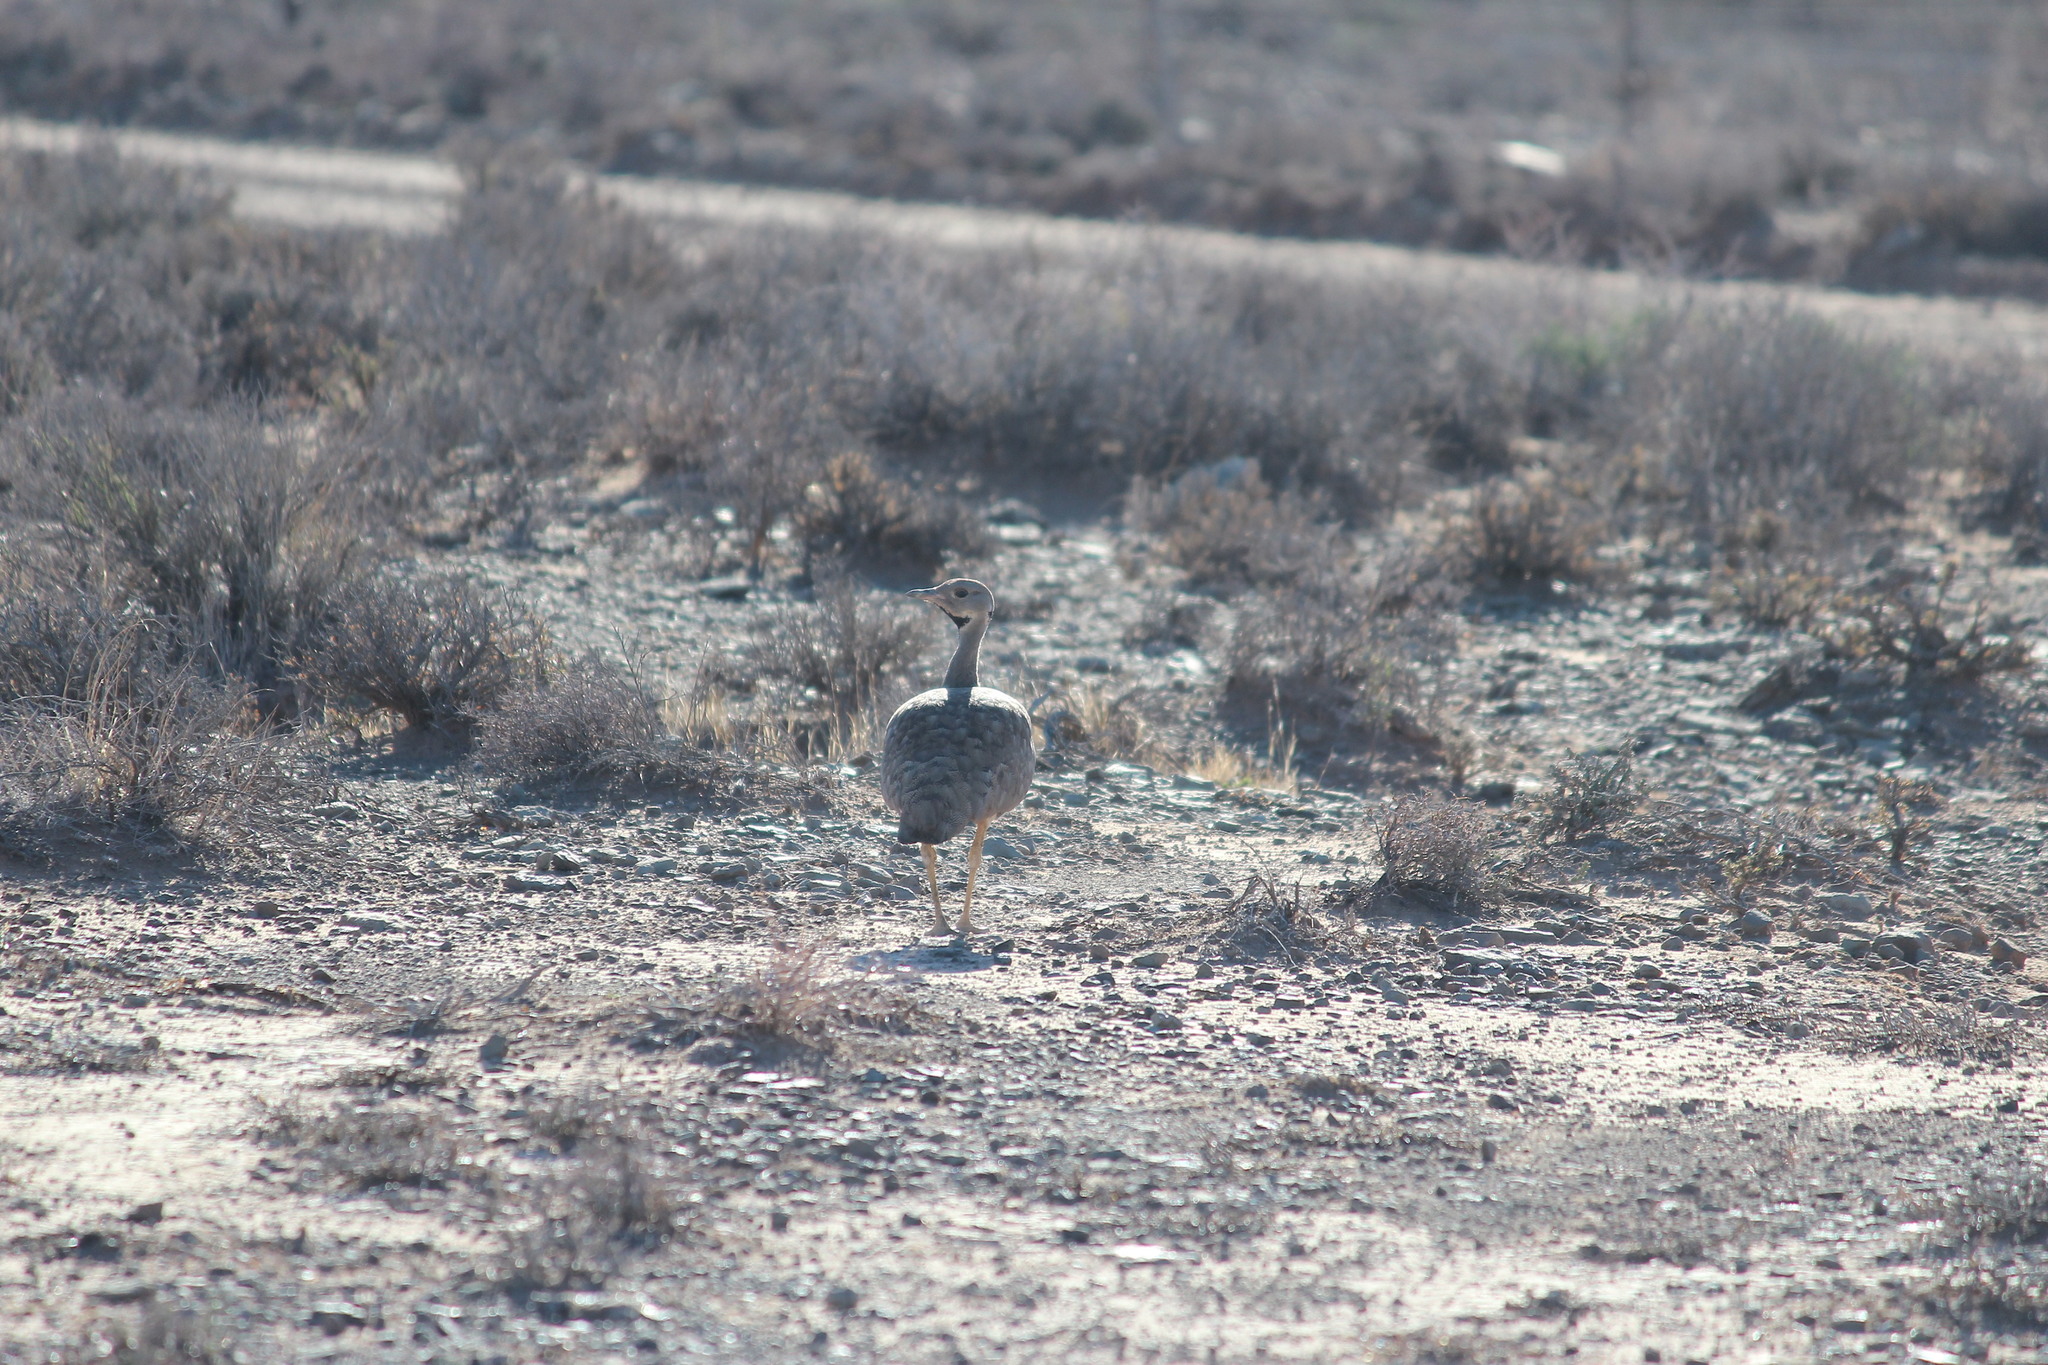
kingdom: Animalia
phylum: Chordata
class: Aves
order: Otidiformes
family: Otididae
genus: Eupodotis
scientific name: Eupodotis vigorsii
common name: Karoo korhaan
